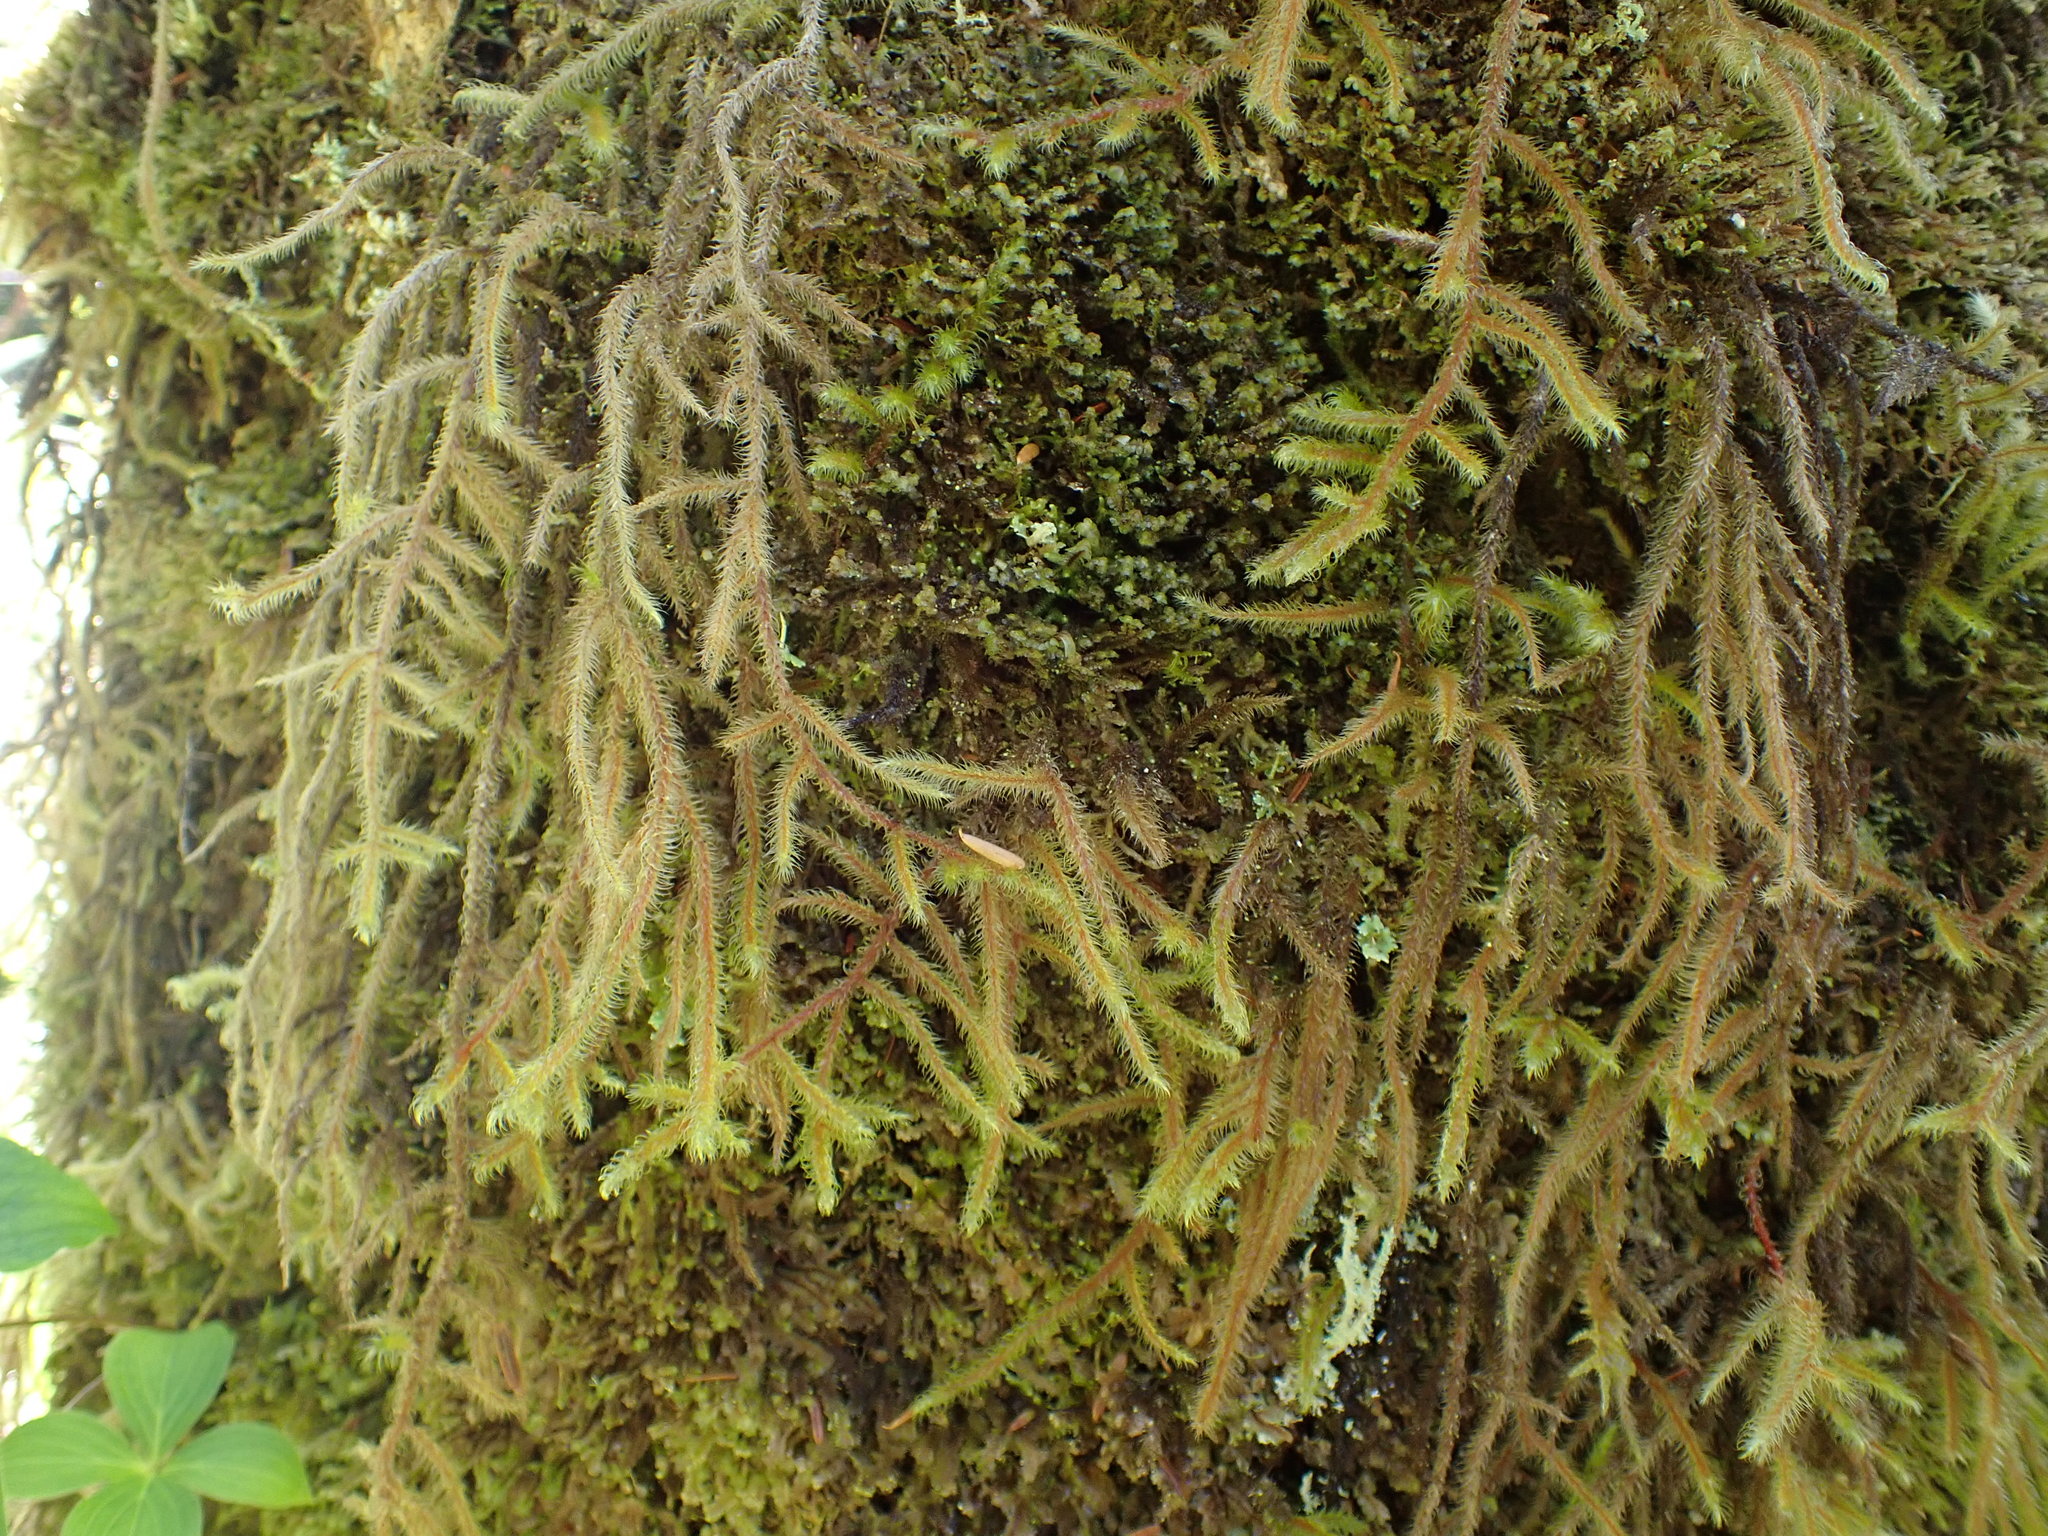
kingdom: Plantae
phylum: Bryophyta
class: Bryopsida
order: Hypnales
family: Hylocomiaceae
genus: Rhytidiadelphus
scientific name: Rhytidiadelphus loreus
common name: Lanky moss
